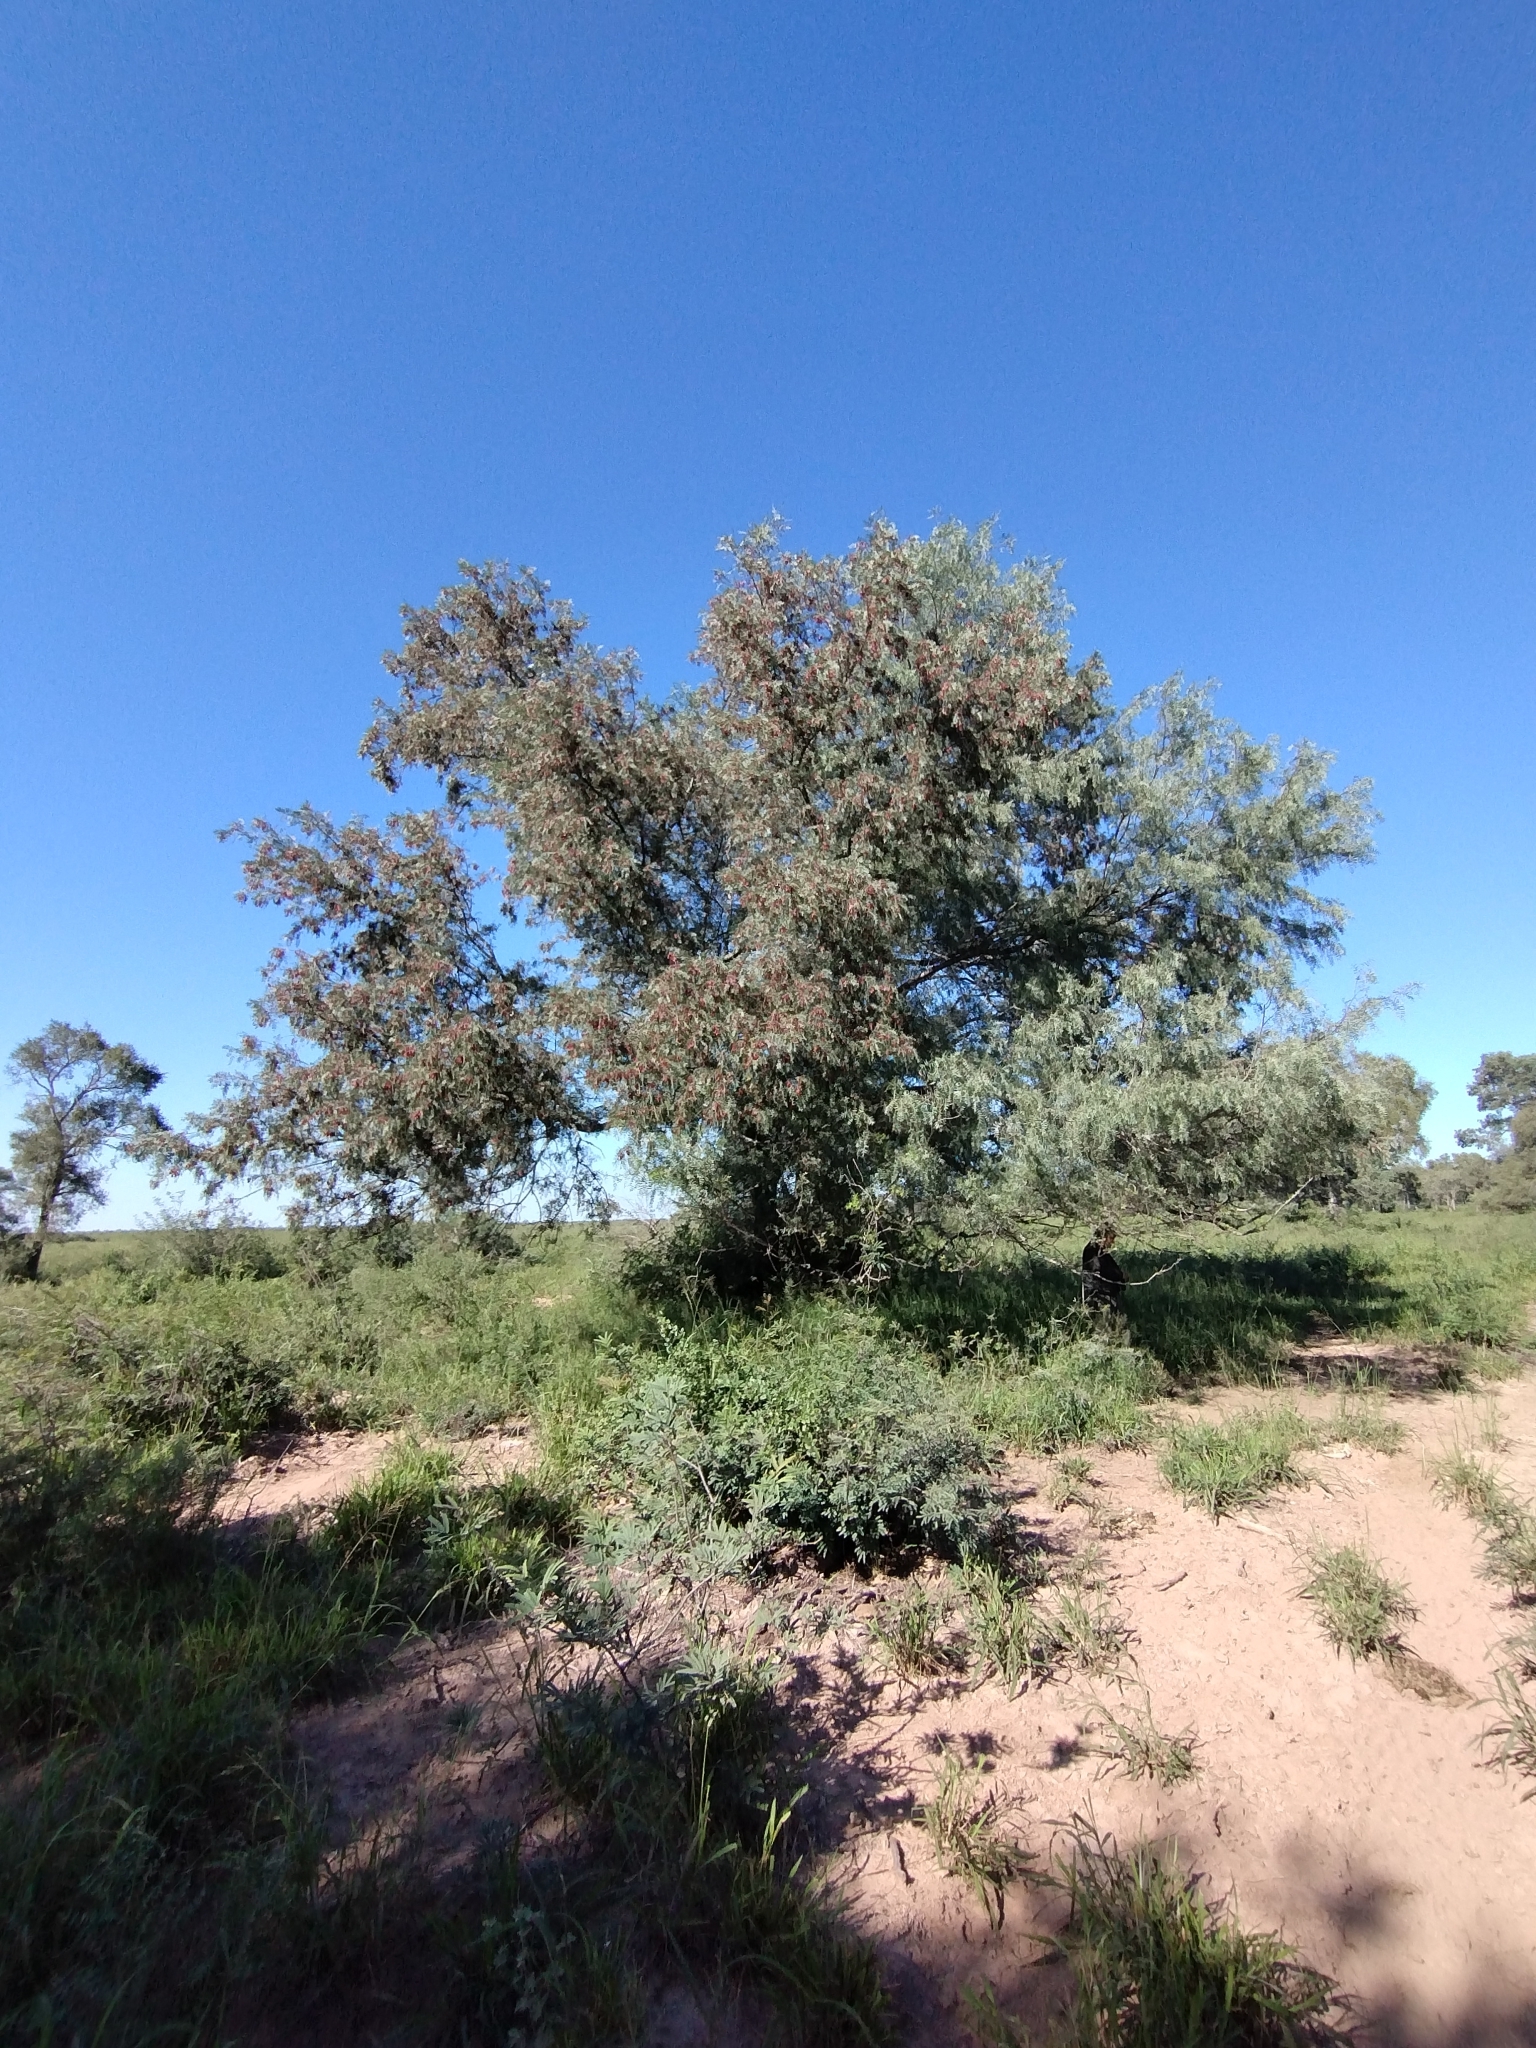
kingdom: Plantae
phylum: Tracheophyta
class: Magnoliopsida
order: Sapindales
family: Anacardiaceae
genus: Schinopsis
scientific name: Schinopsis lorentzii
